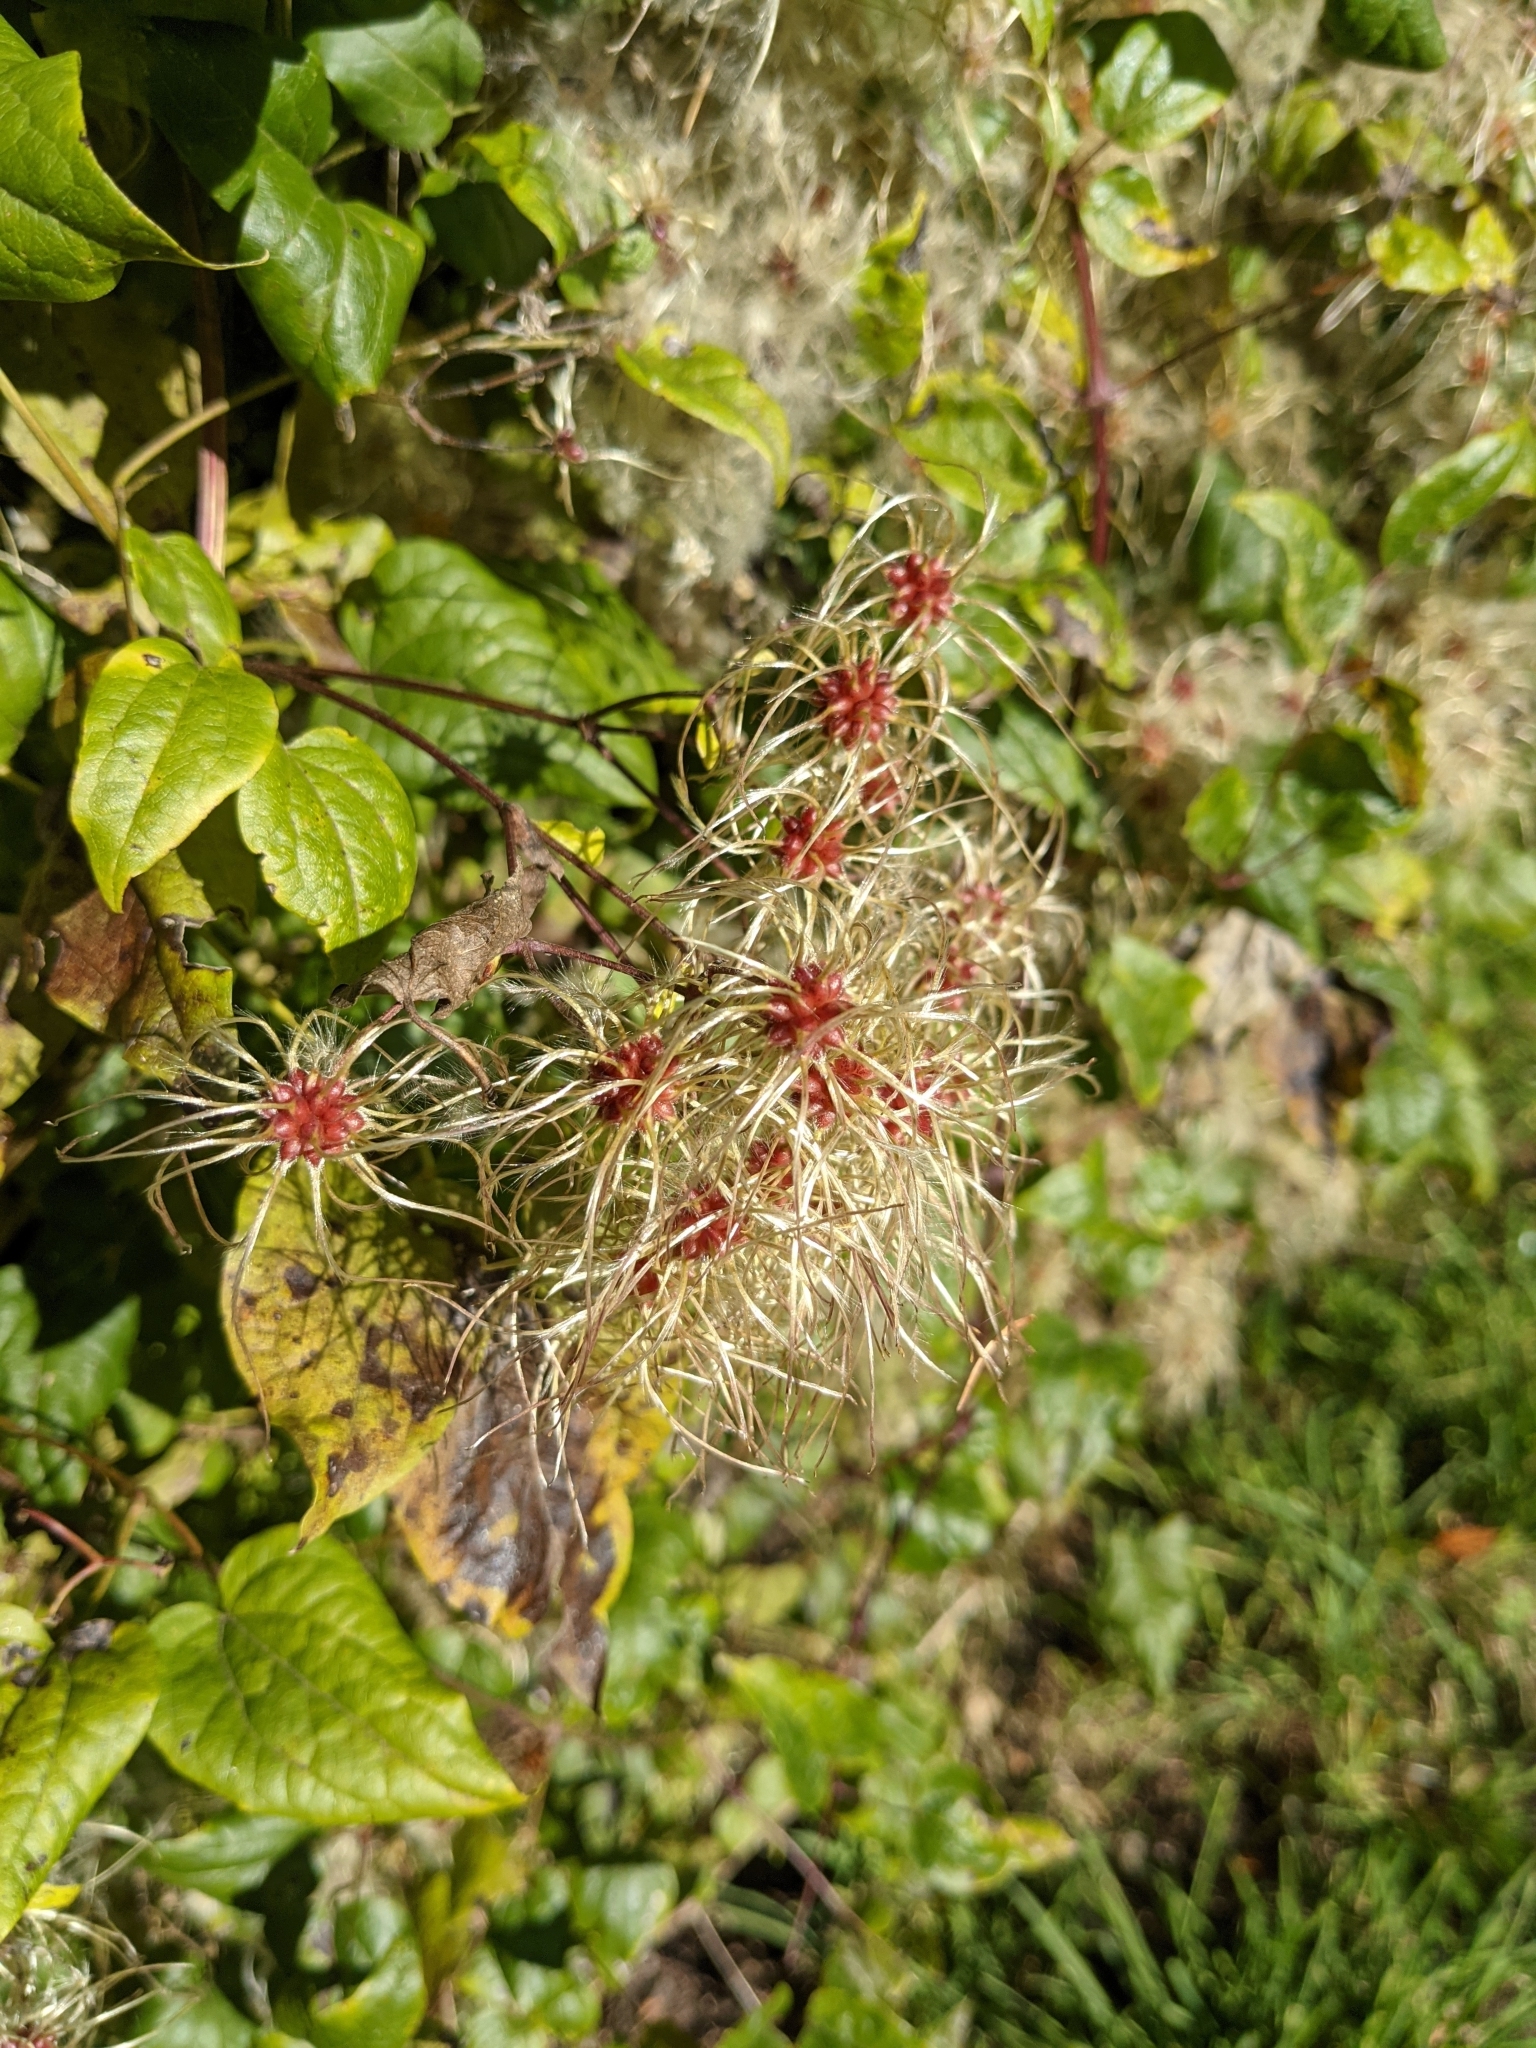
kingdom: Plantae
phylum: Tracheophyta
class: Magnoliopsida
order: Ranunculales
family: Ranunculaceae
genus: Clematis
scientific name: Clematis vitalba
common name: Evergreen clematis
